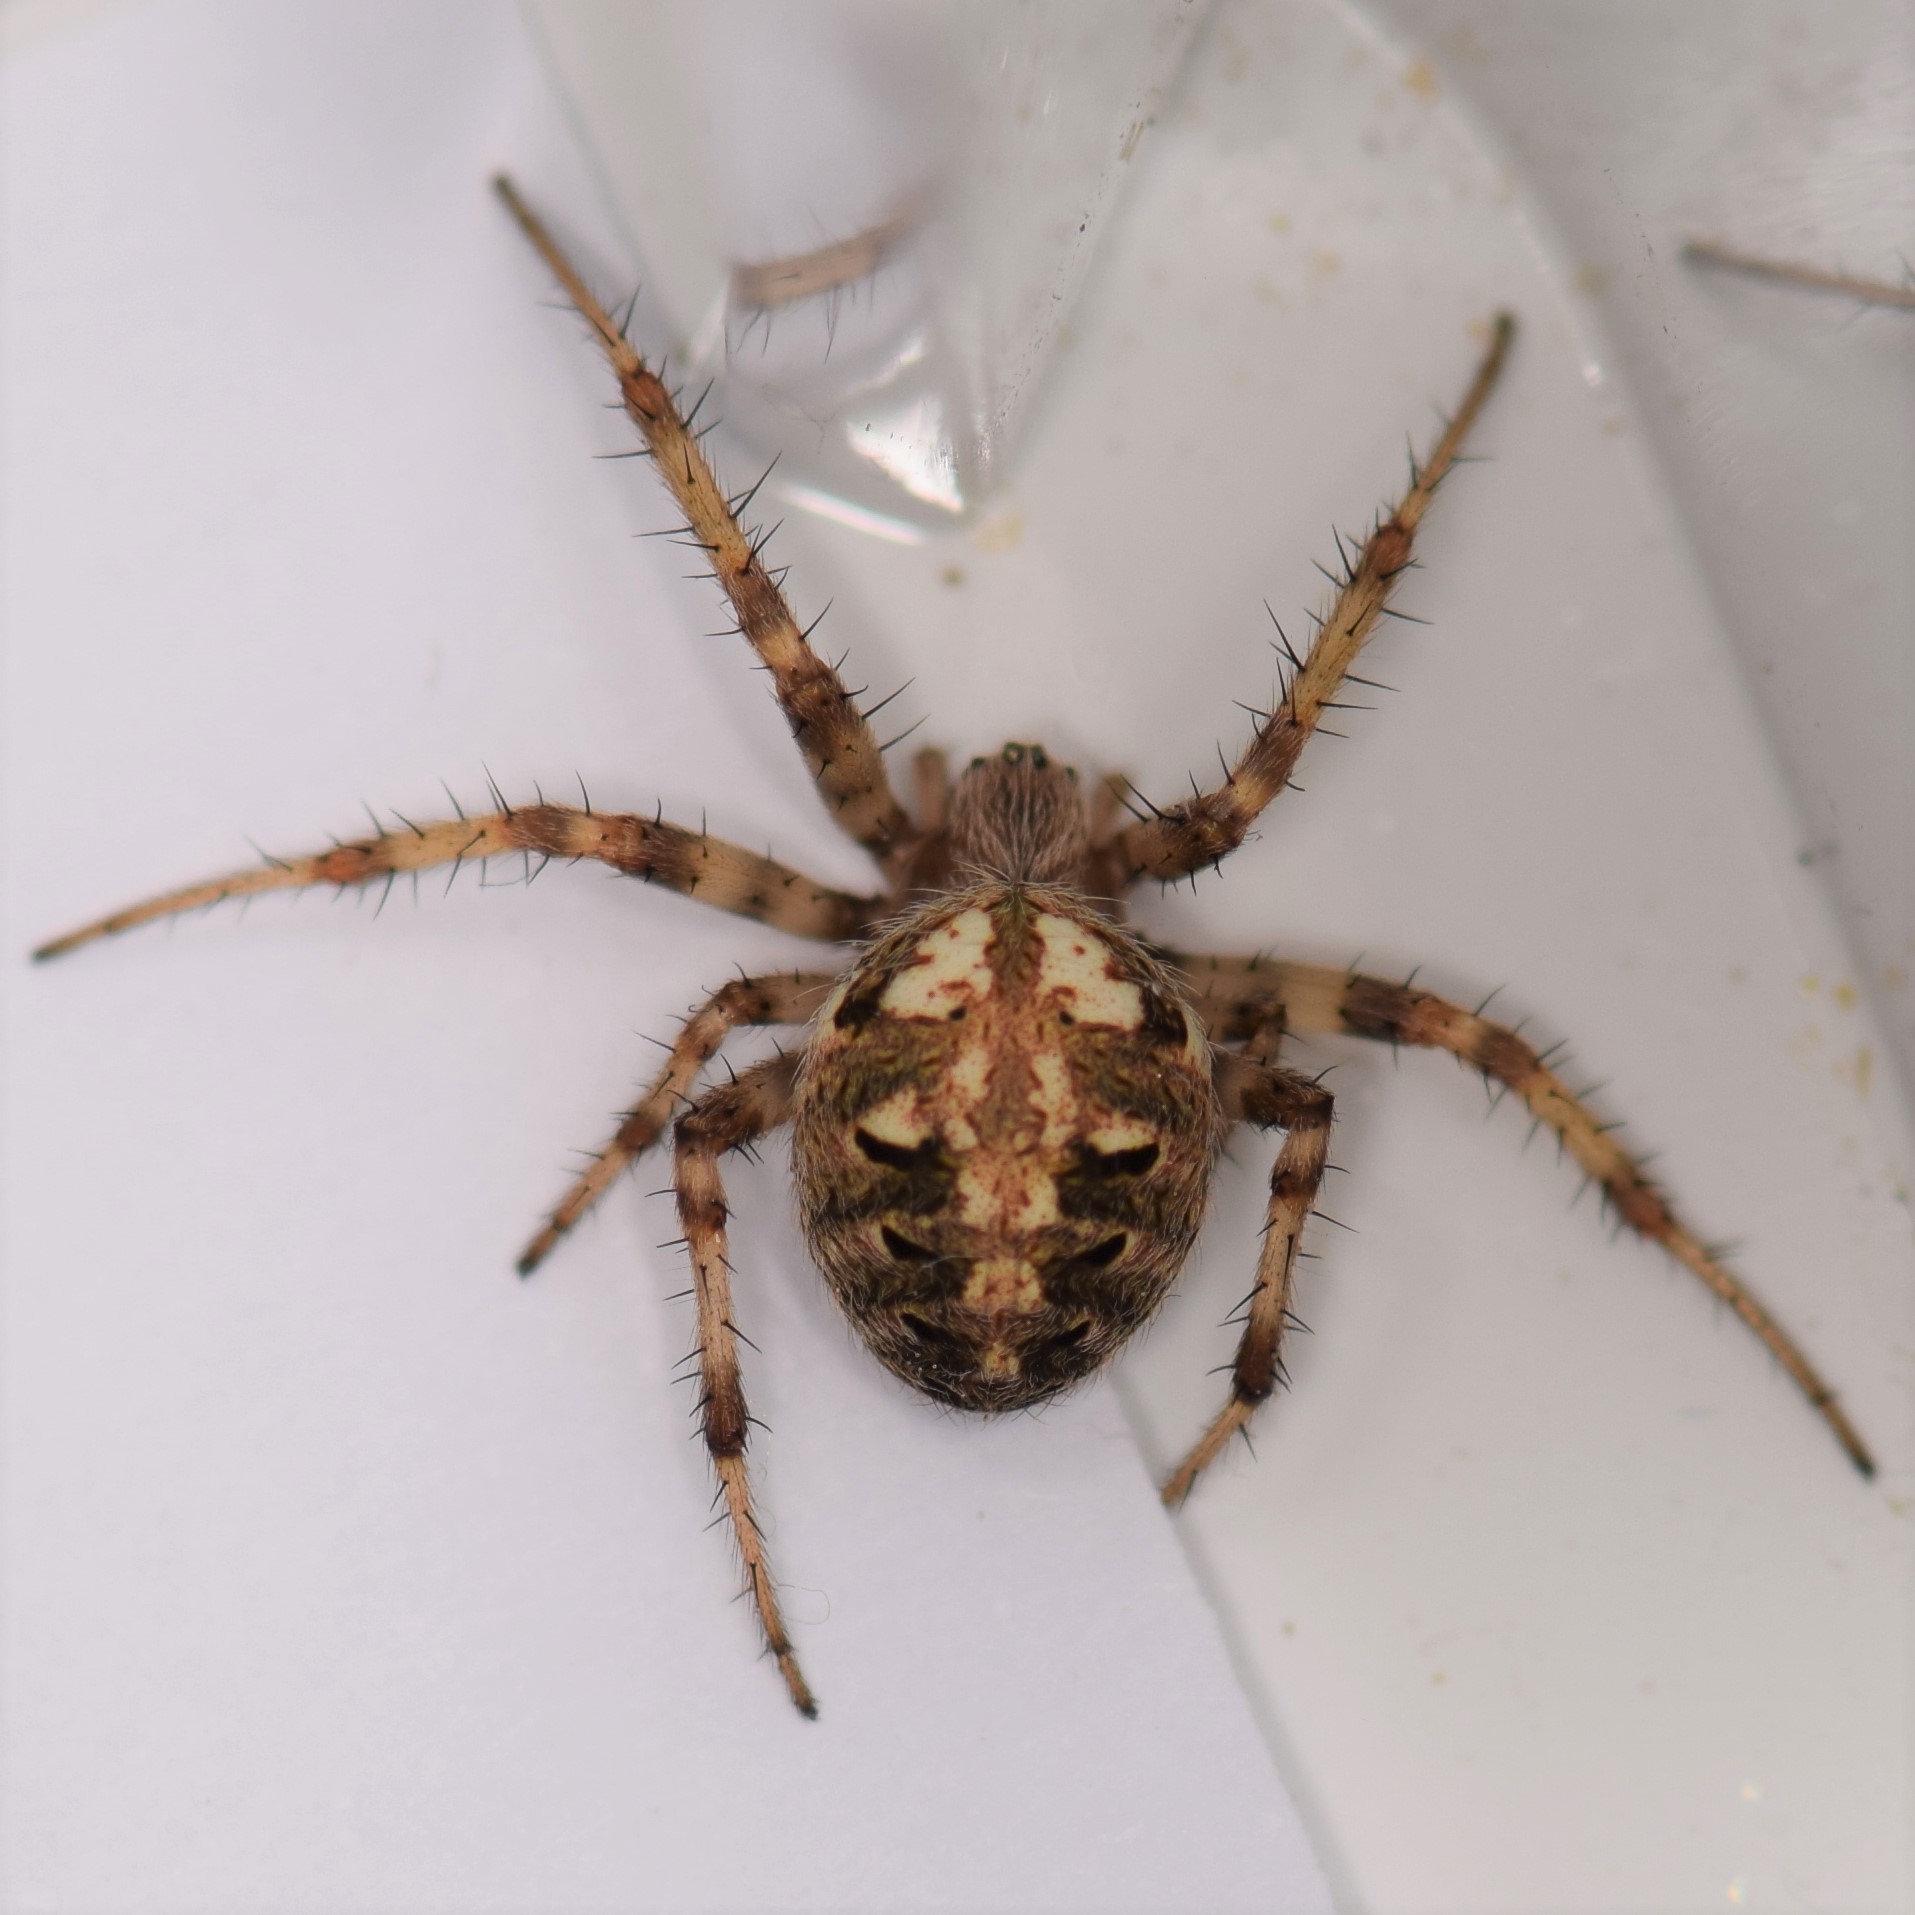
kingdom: Animalia
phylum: Arthropoda
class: Arachnida
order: Araneae
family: Araneidae
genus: Neoscona
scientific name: Neoscona arabesca
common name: Orb weavers
